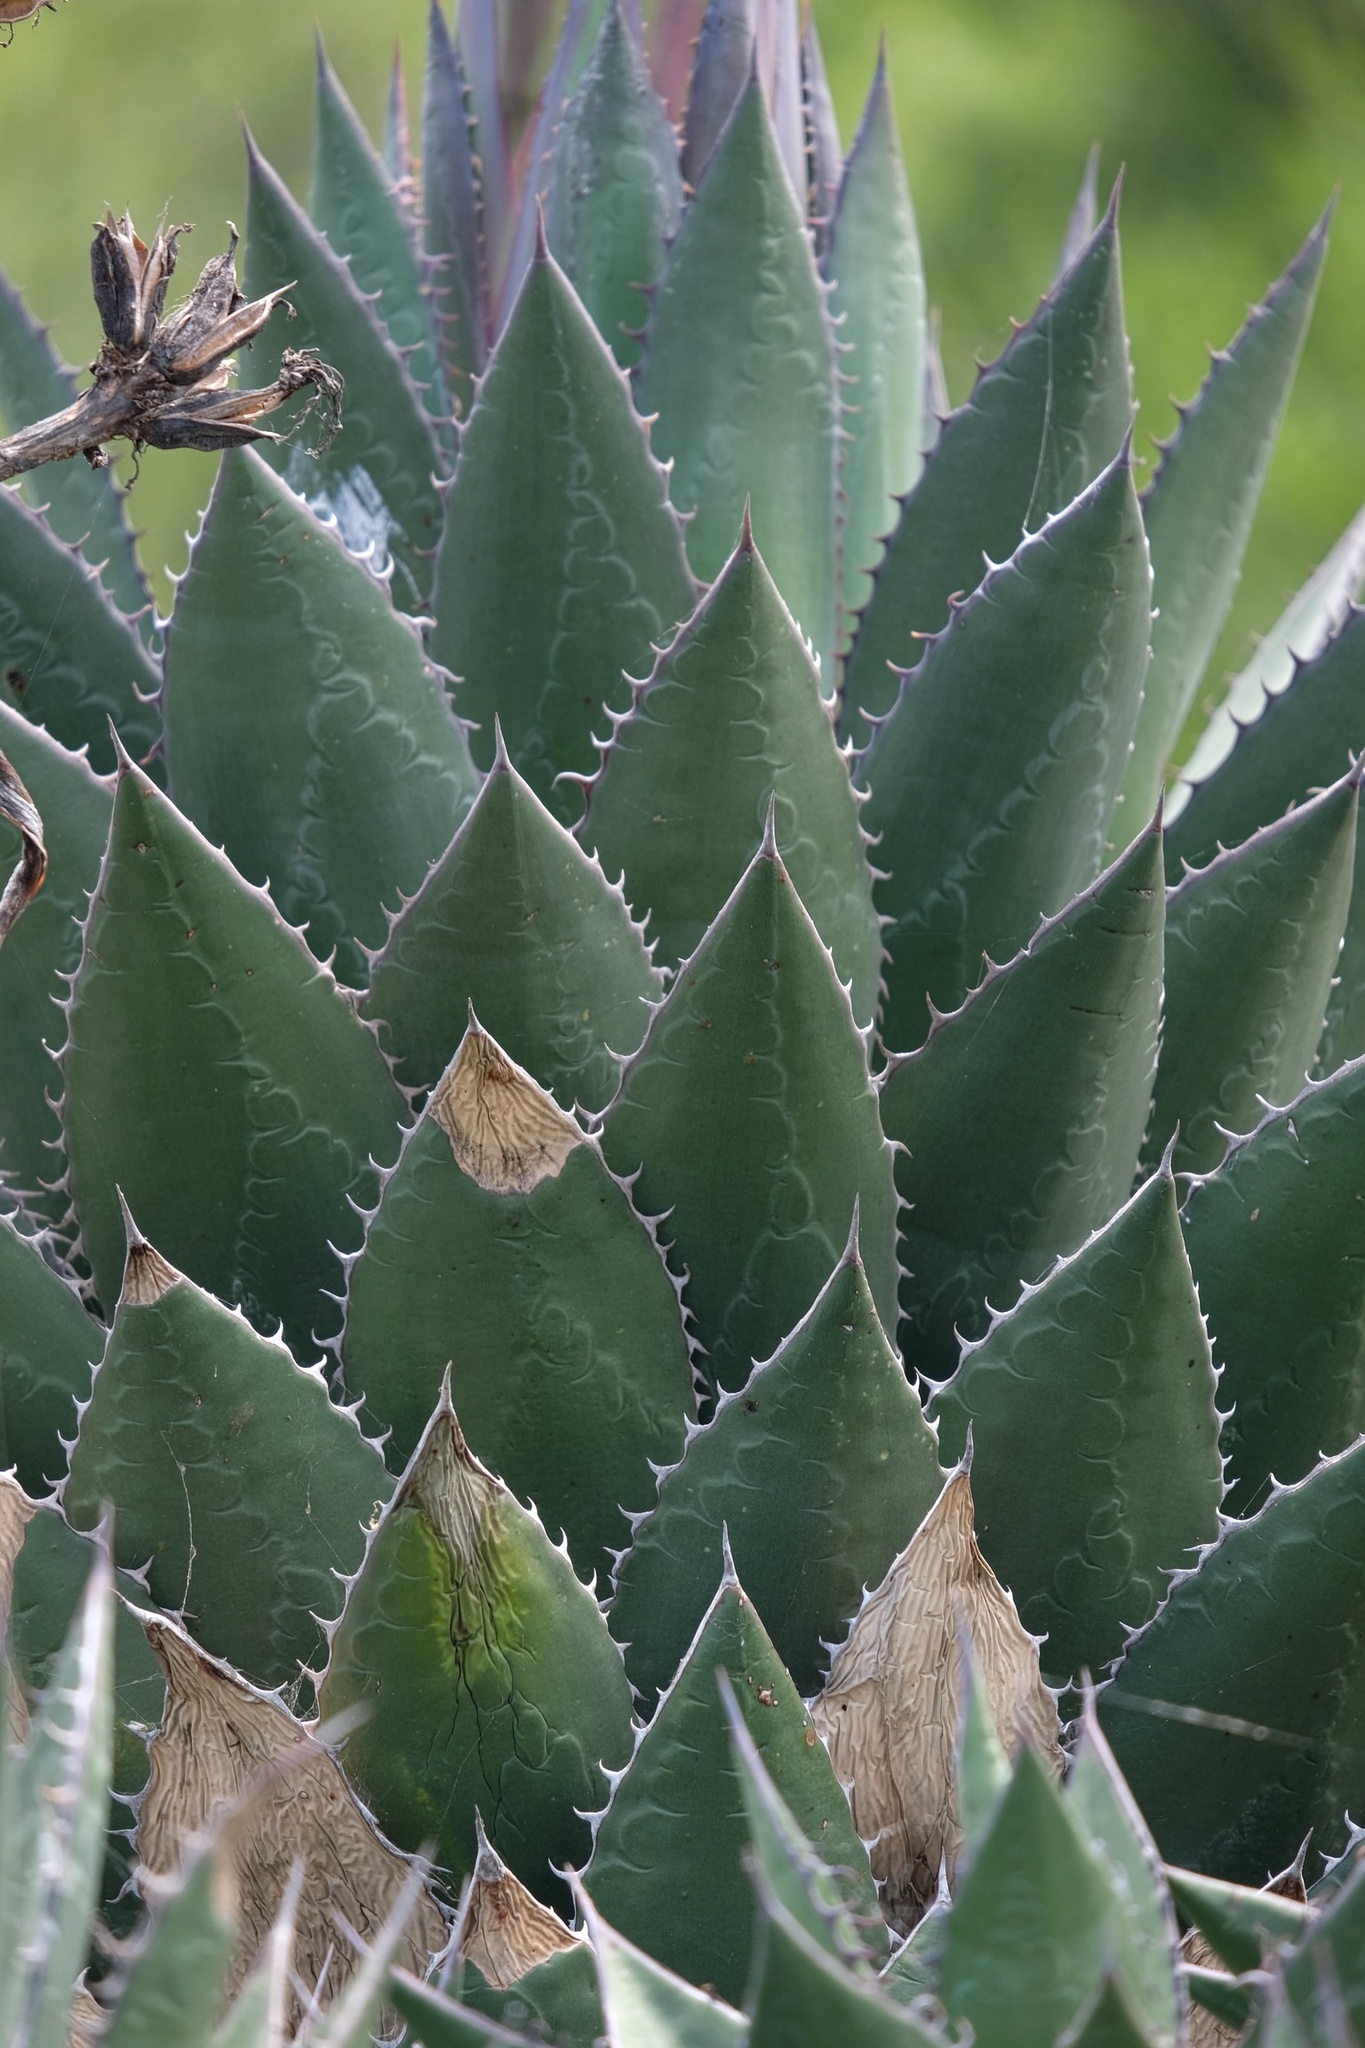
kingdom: Plantae
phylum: Tracheophyta
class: Liliopsida
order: Asparagales
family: Asparagaceae
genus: Agave
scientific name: Agave shawii
